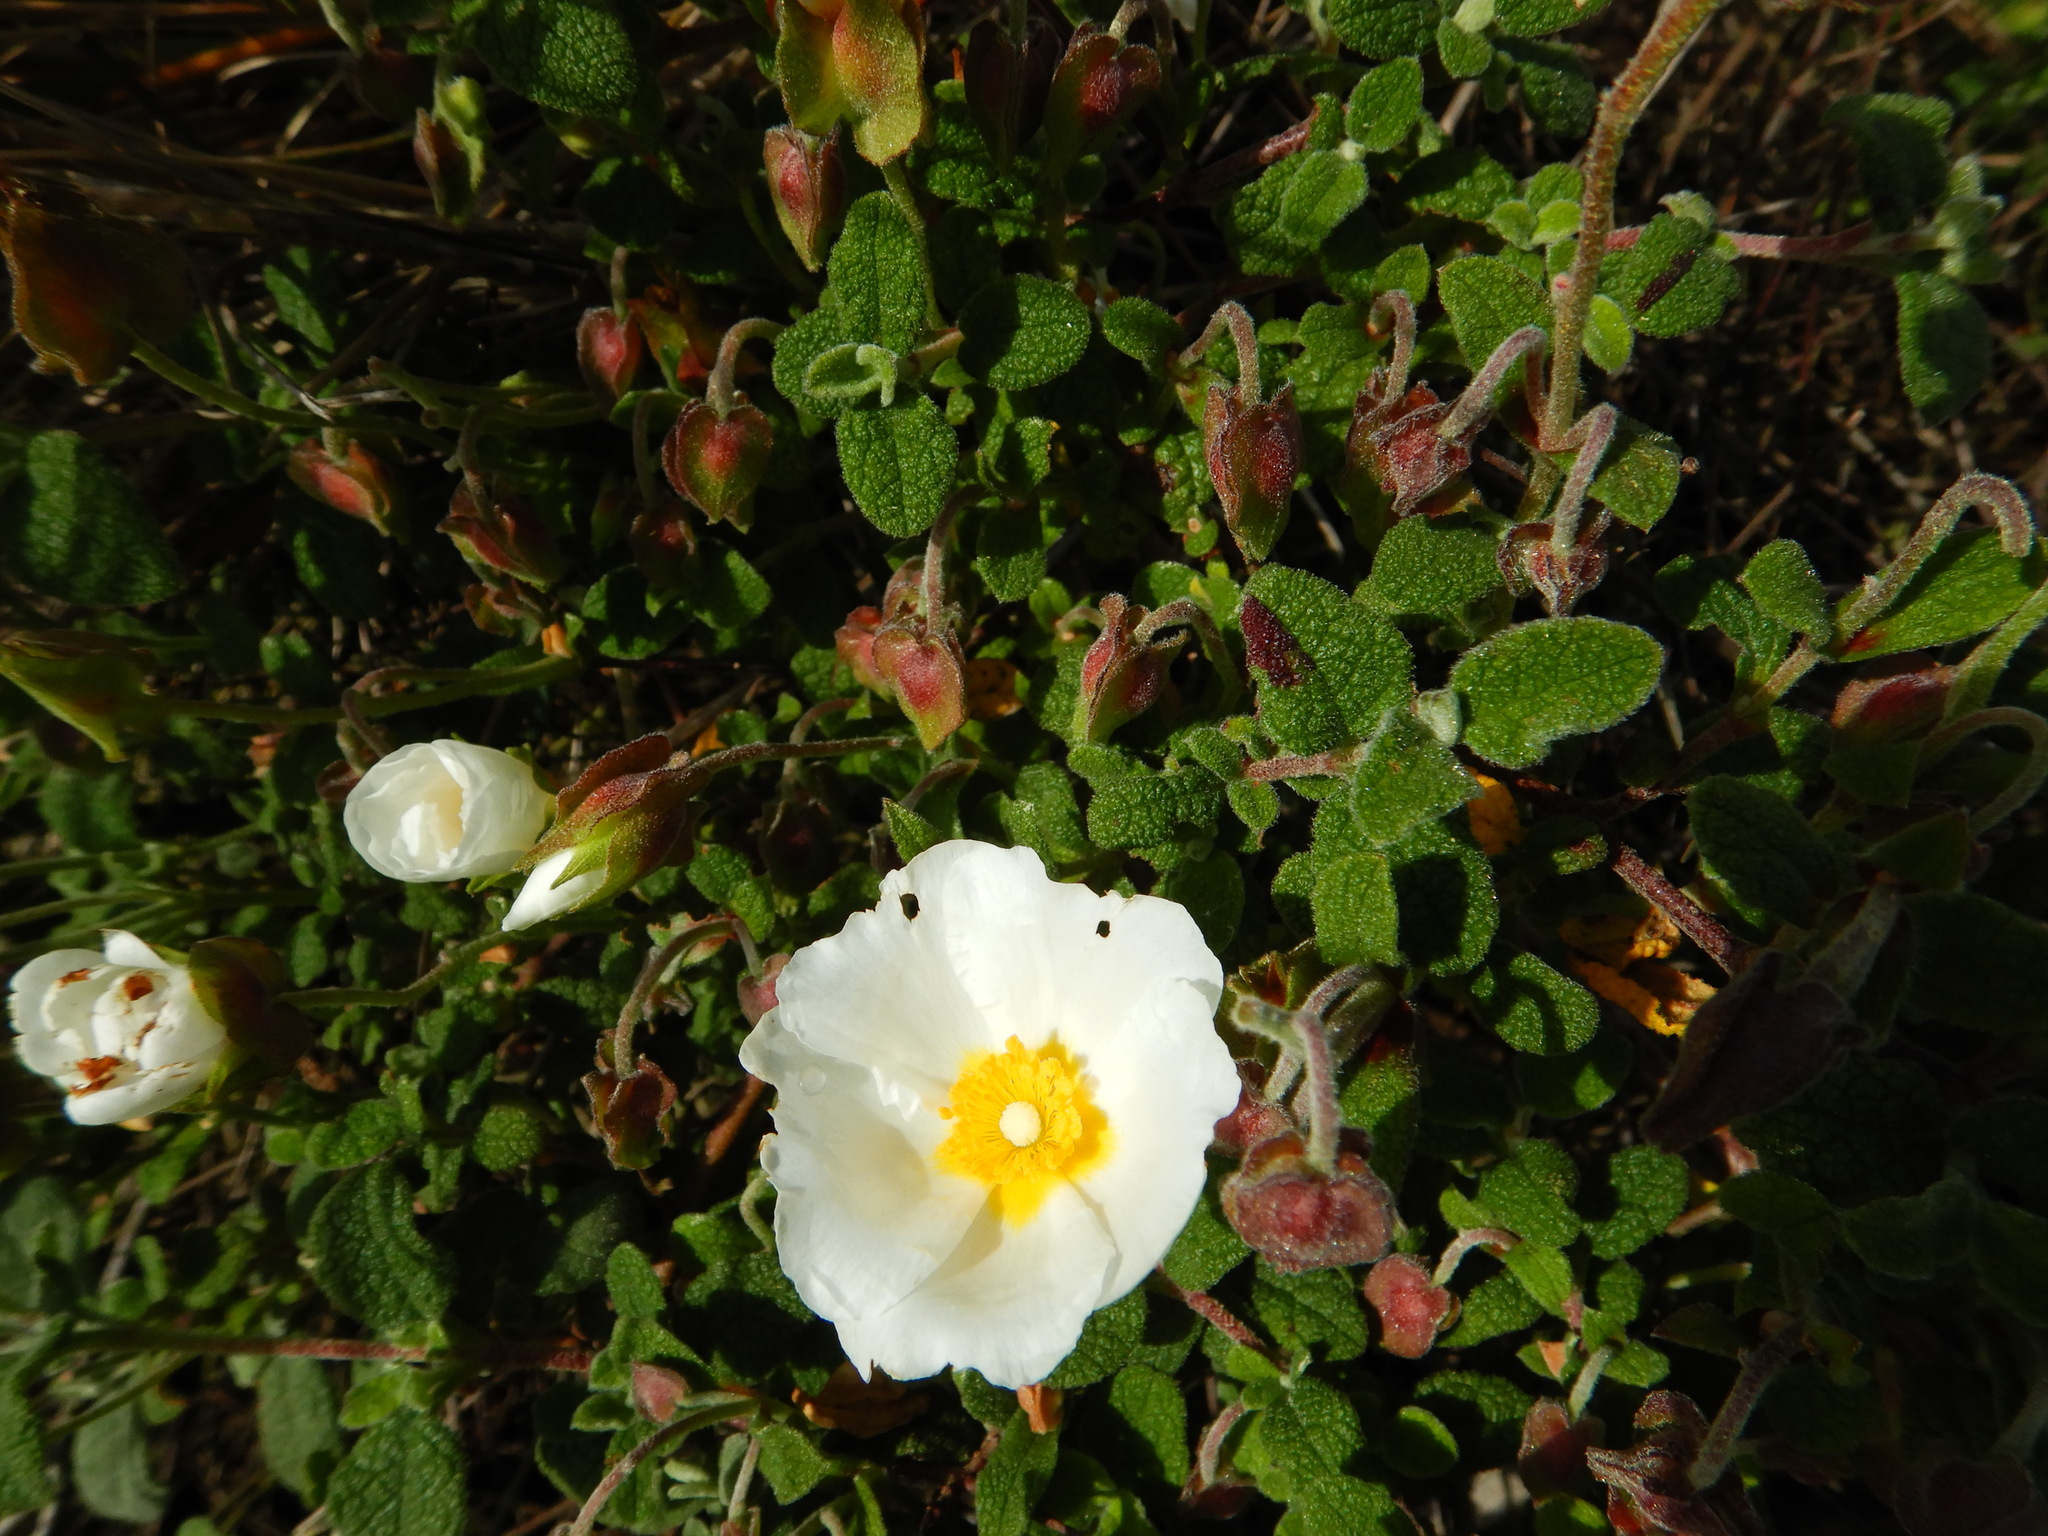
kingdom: Plantae
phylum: Tracheophyta
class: Magnoliopsida
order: Malvales
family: Cistaceae
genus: Cistus
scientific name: Cistus salviifolius
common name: Salvia cistus
